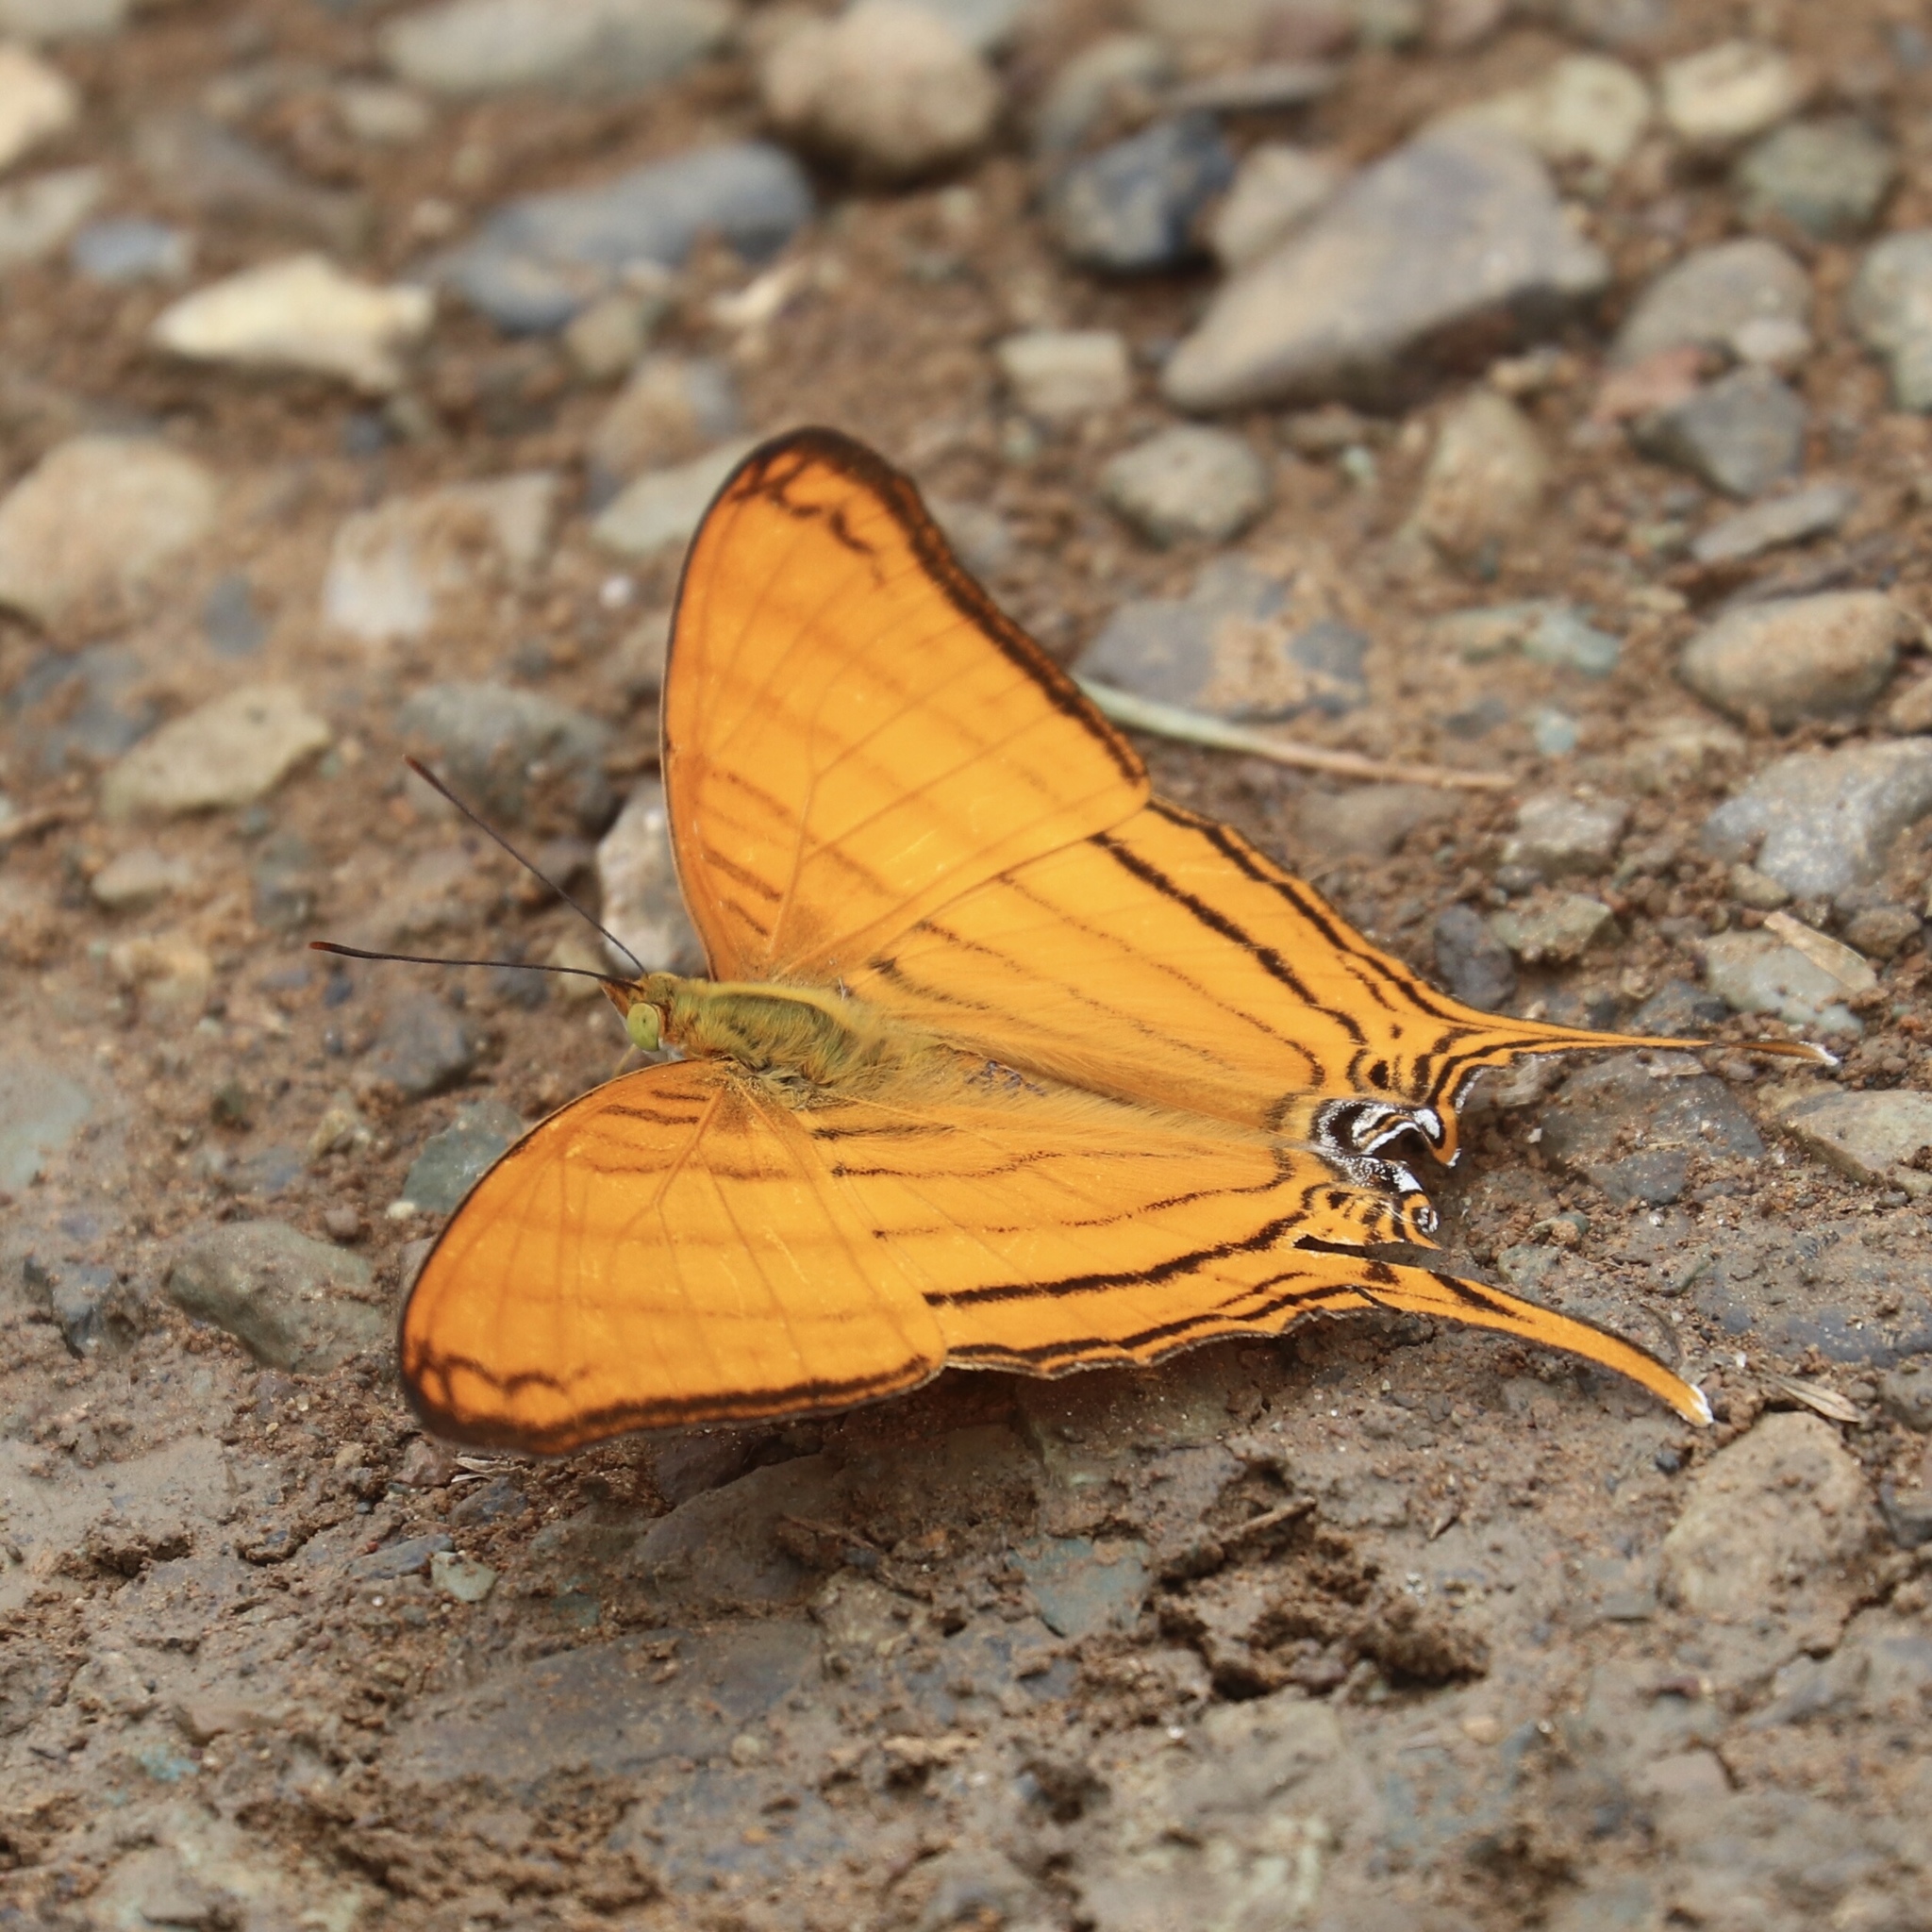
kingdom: Animalia
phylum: Arthropoda
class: Insecta
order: Lepidoptera
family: Nymphalidae
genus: Marpesia
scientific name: Marpesia petreus
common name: Red dagger wing
